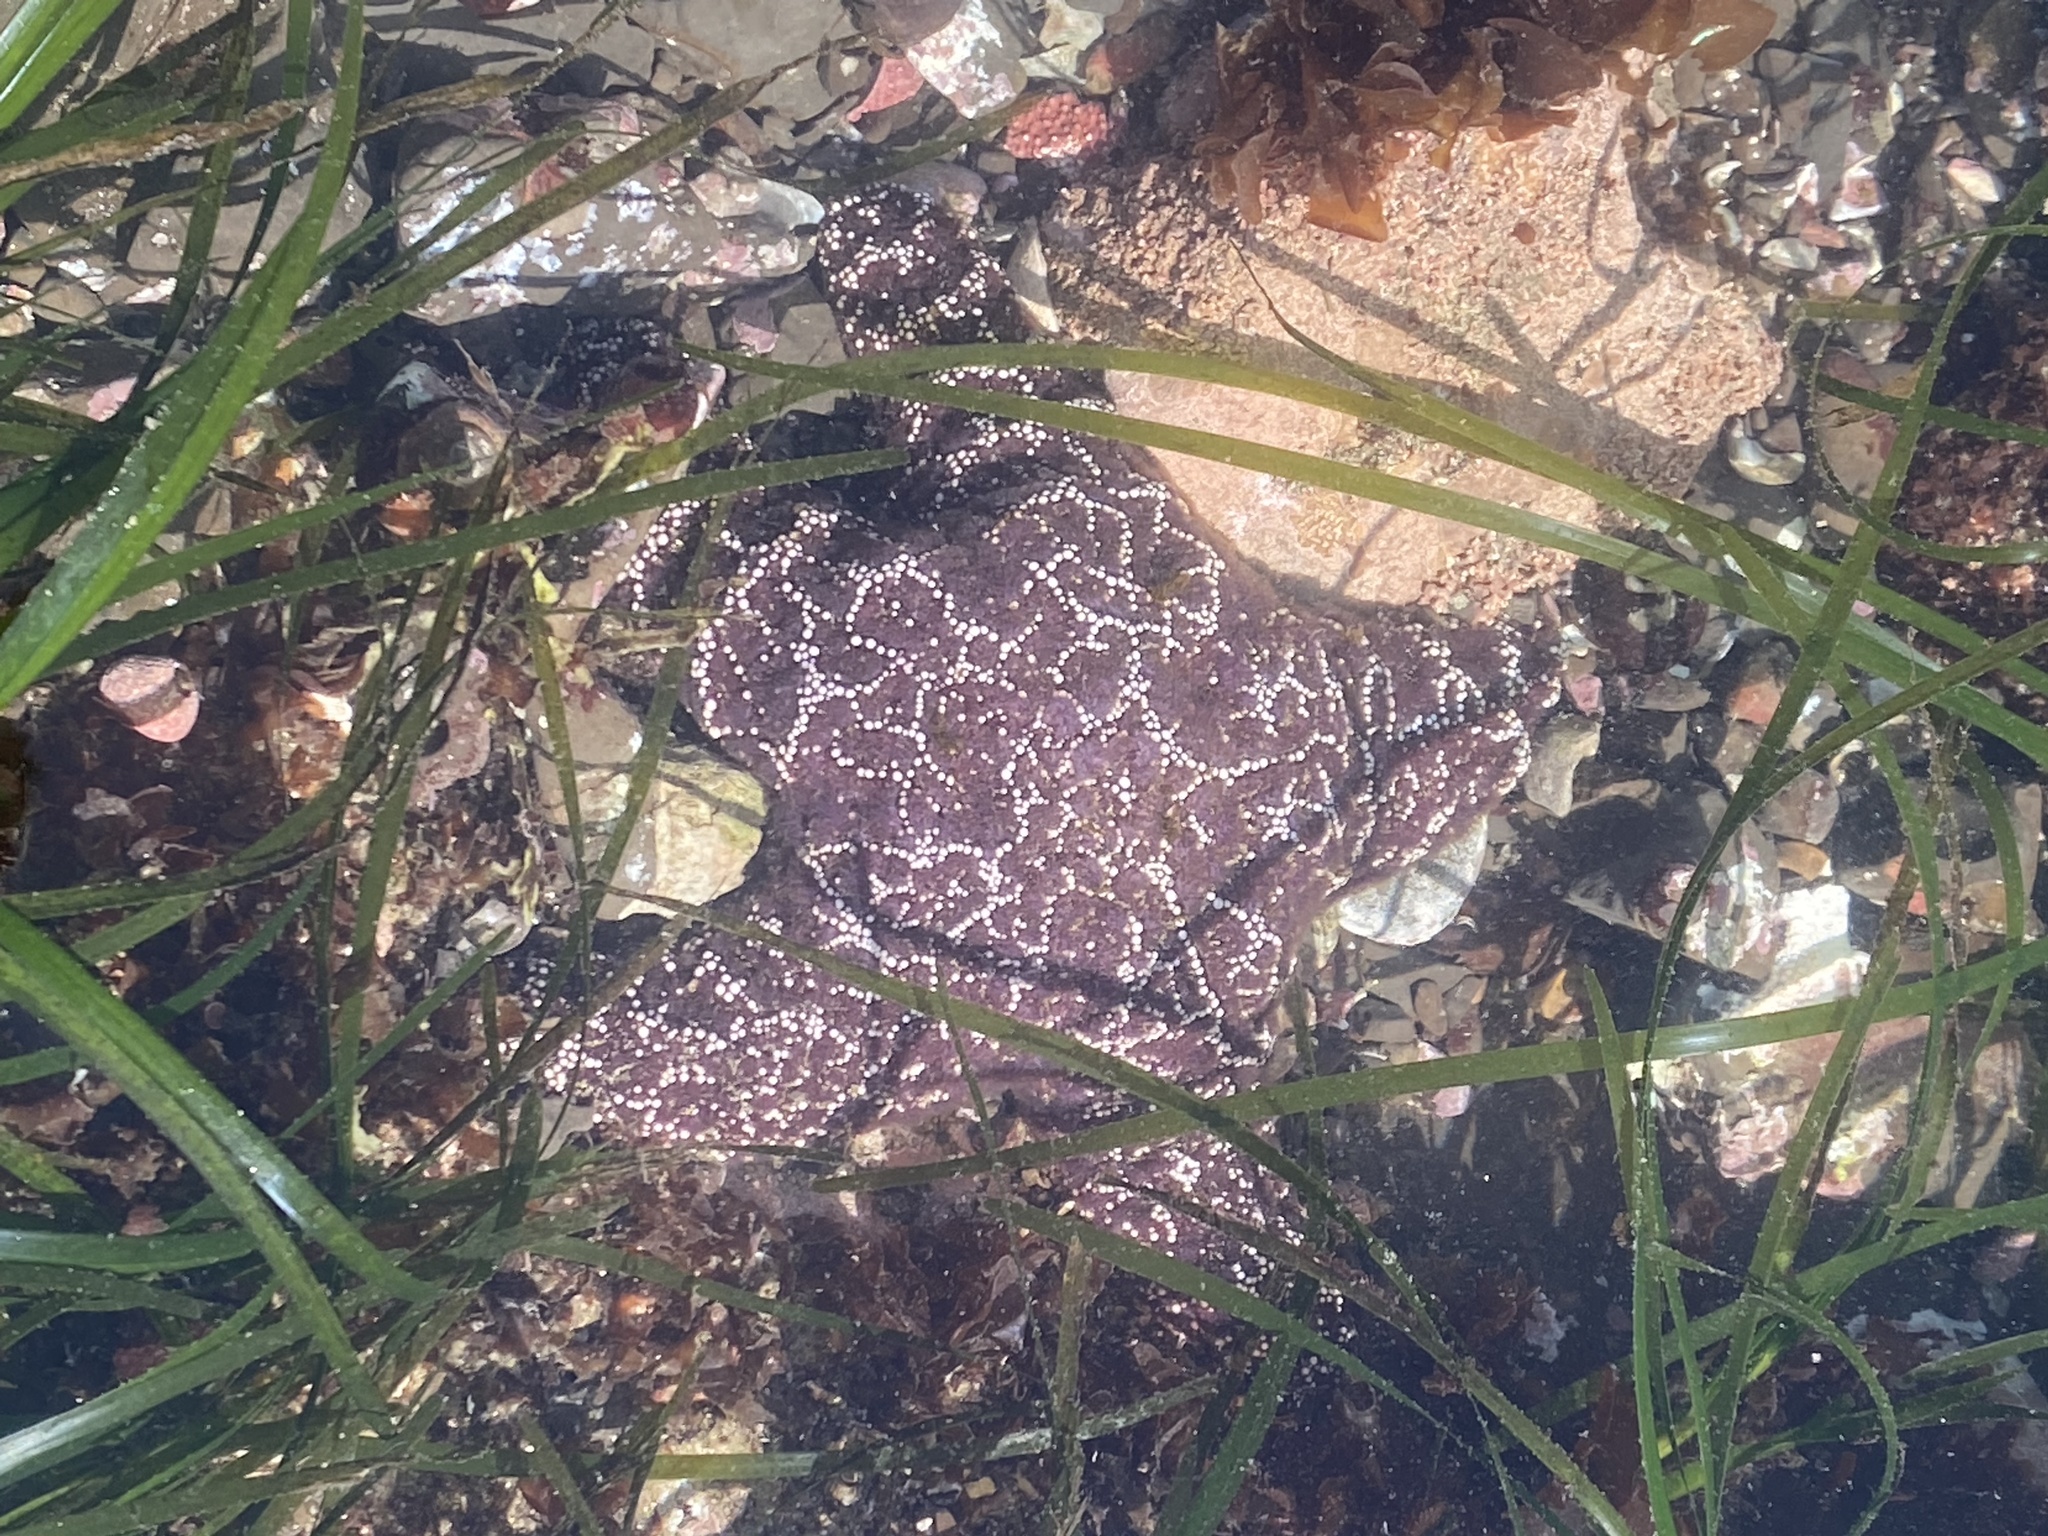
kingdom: Animalia
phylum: Echinodermata
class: Asteroidea
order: Forcipulatida
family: Asteriidae
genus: Pisaster
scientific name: Pisaster ochraceus
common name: Ochre stars
